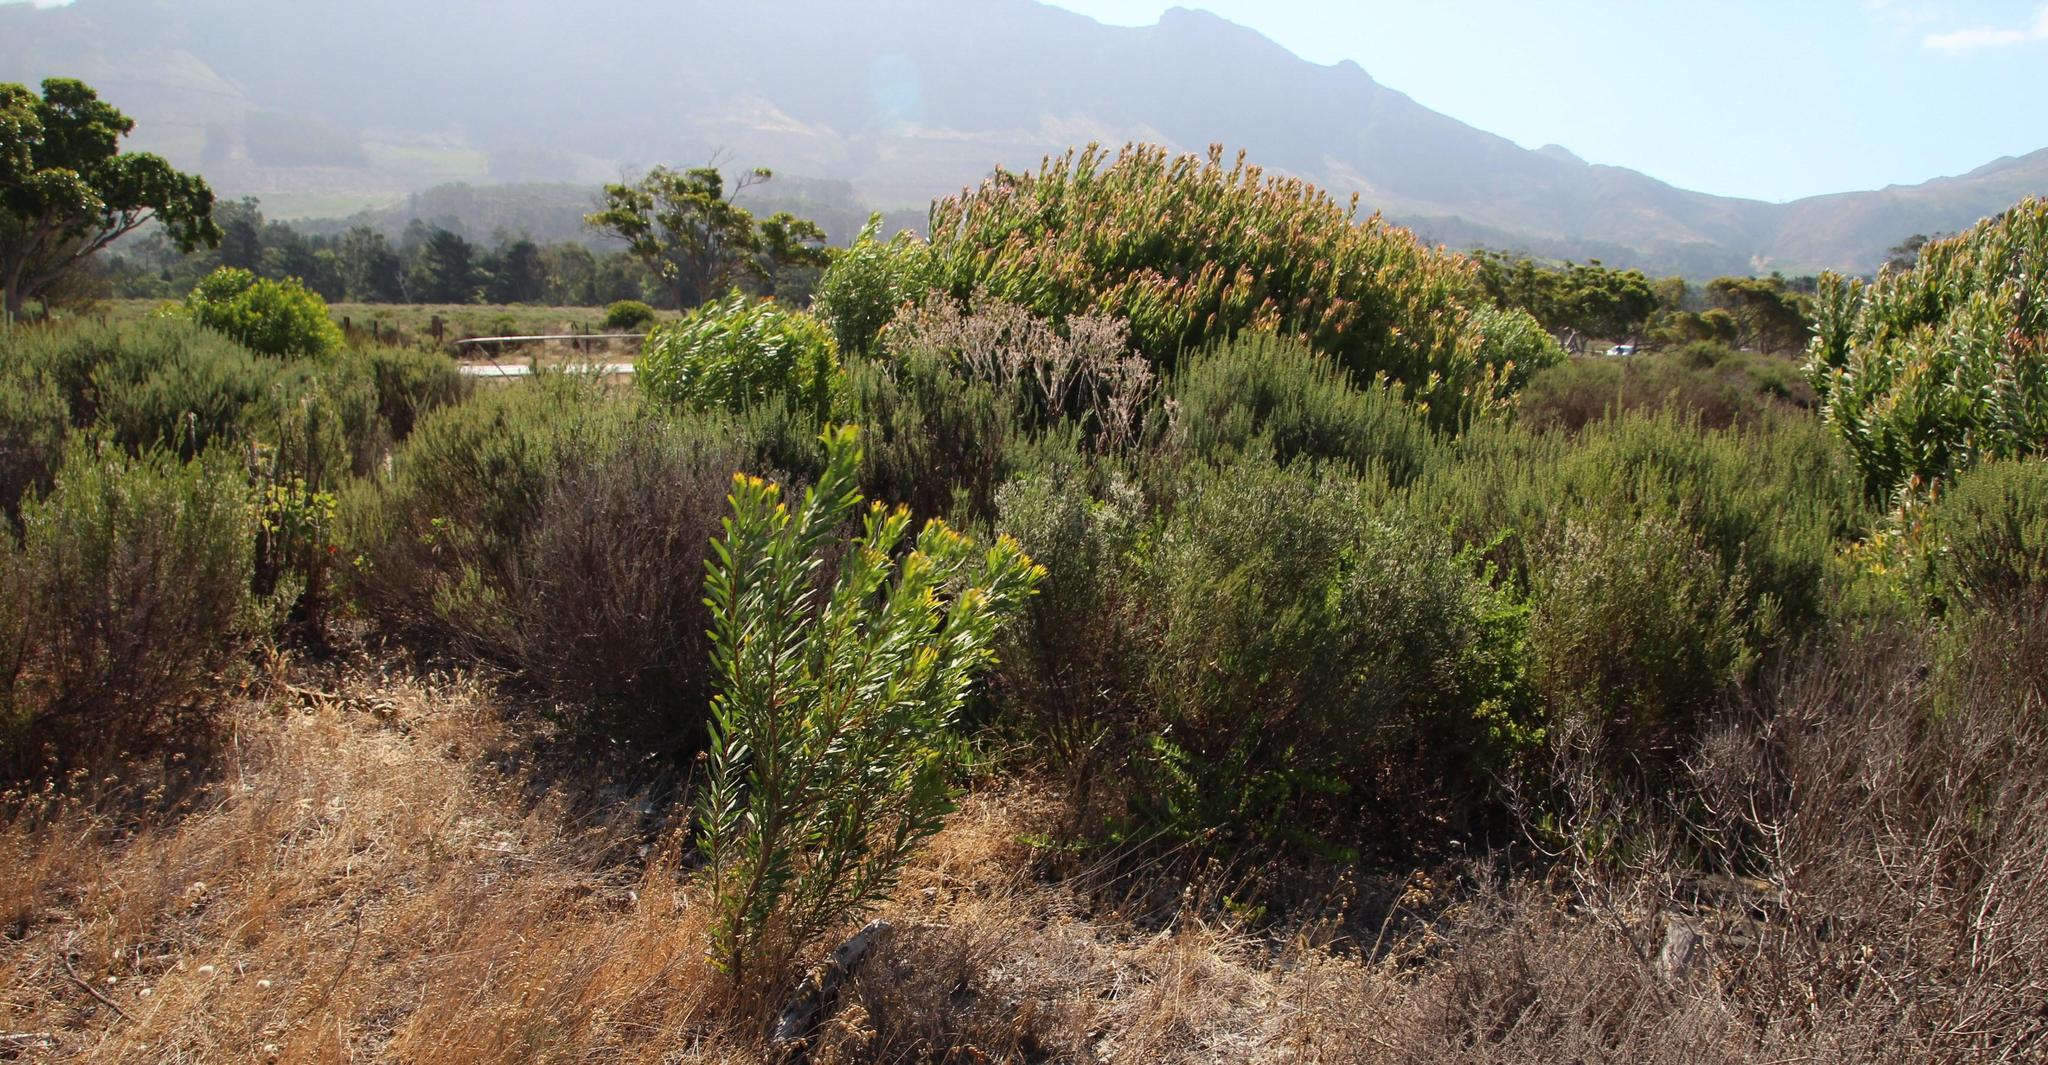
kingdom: Plantae
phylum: Tracheophyta
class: Magnoliopsida
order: Proteales
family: Proteaceae
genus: Protea
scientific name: Protea repens
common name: Sugarbush
